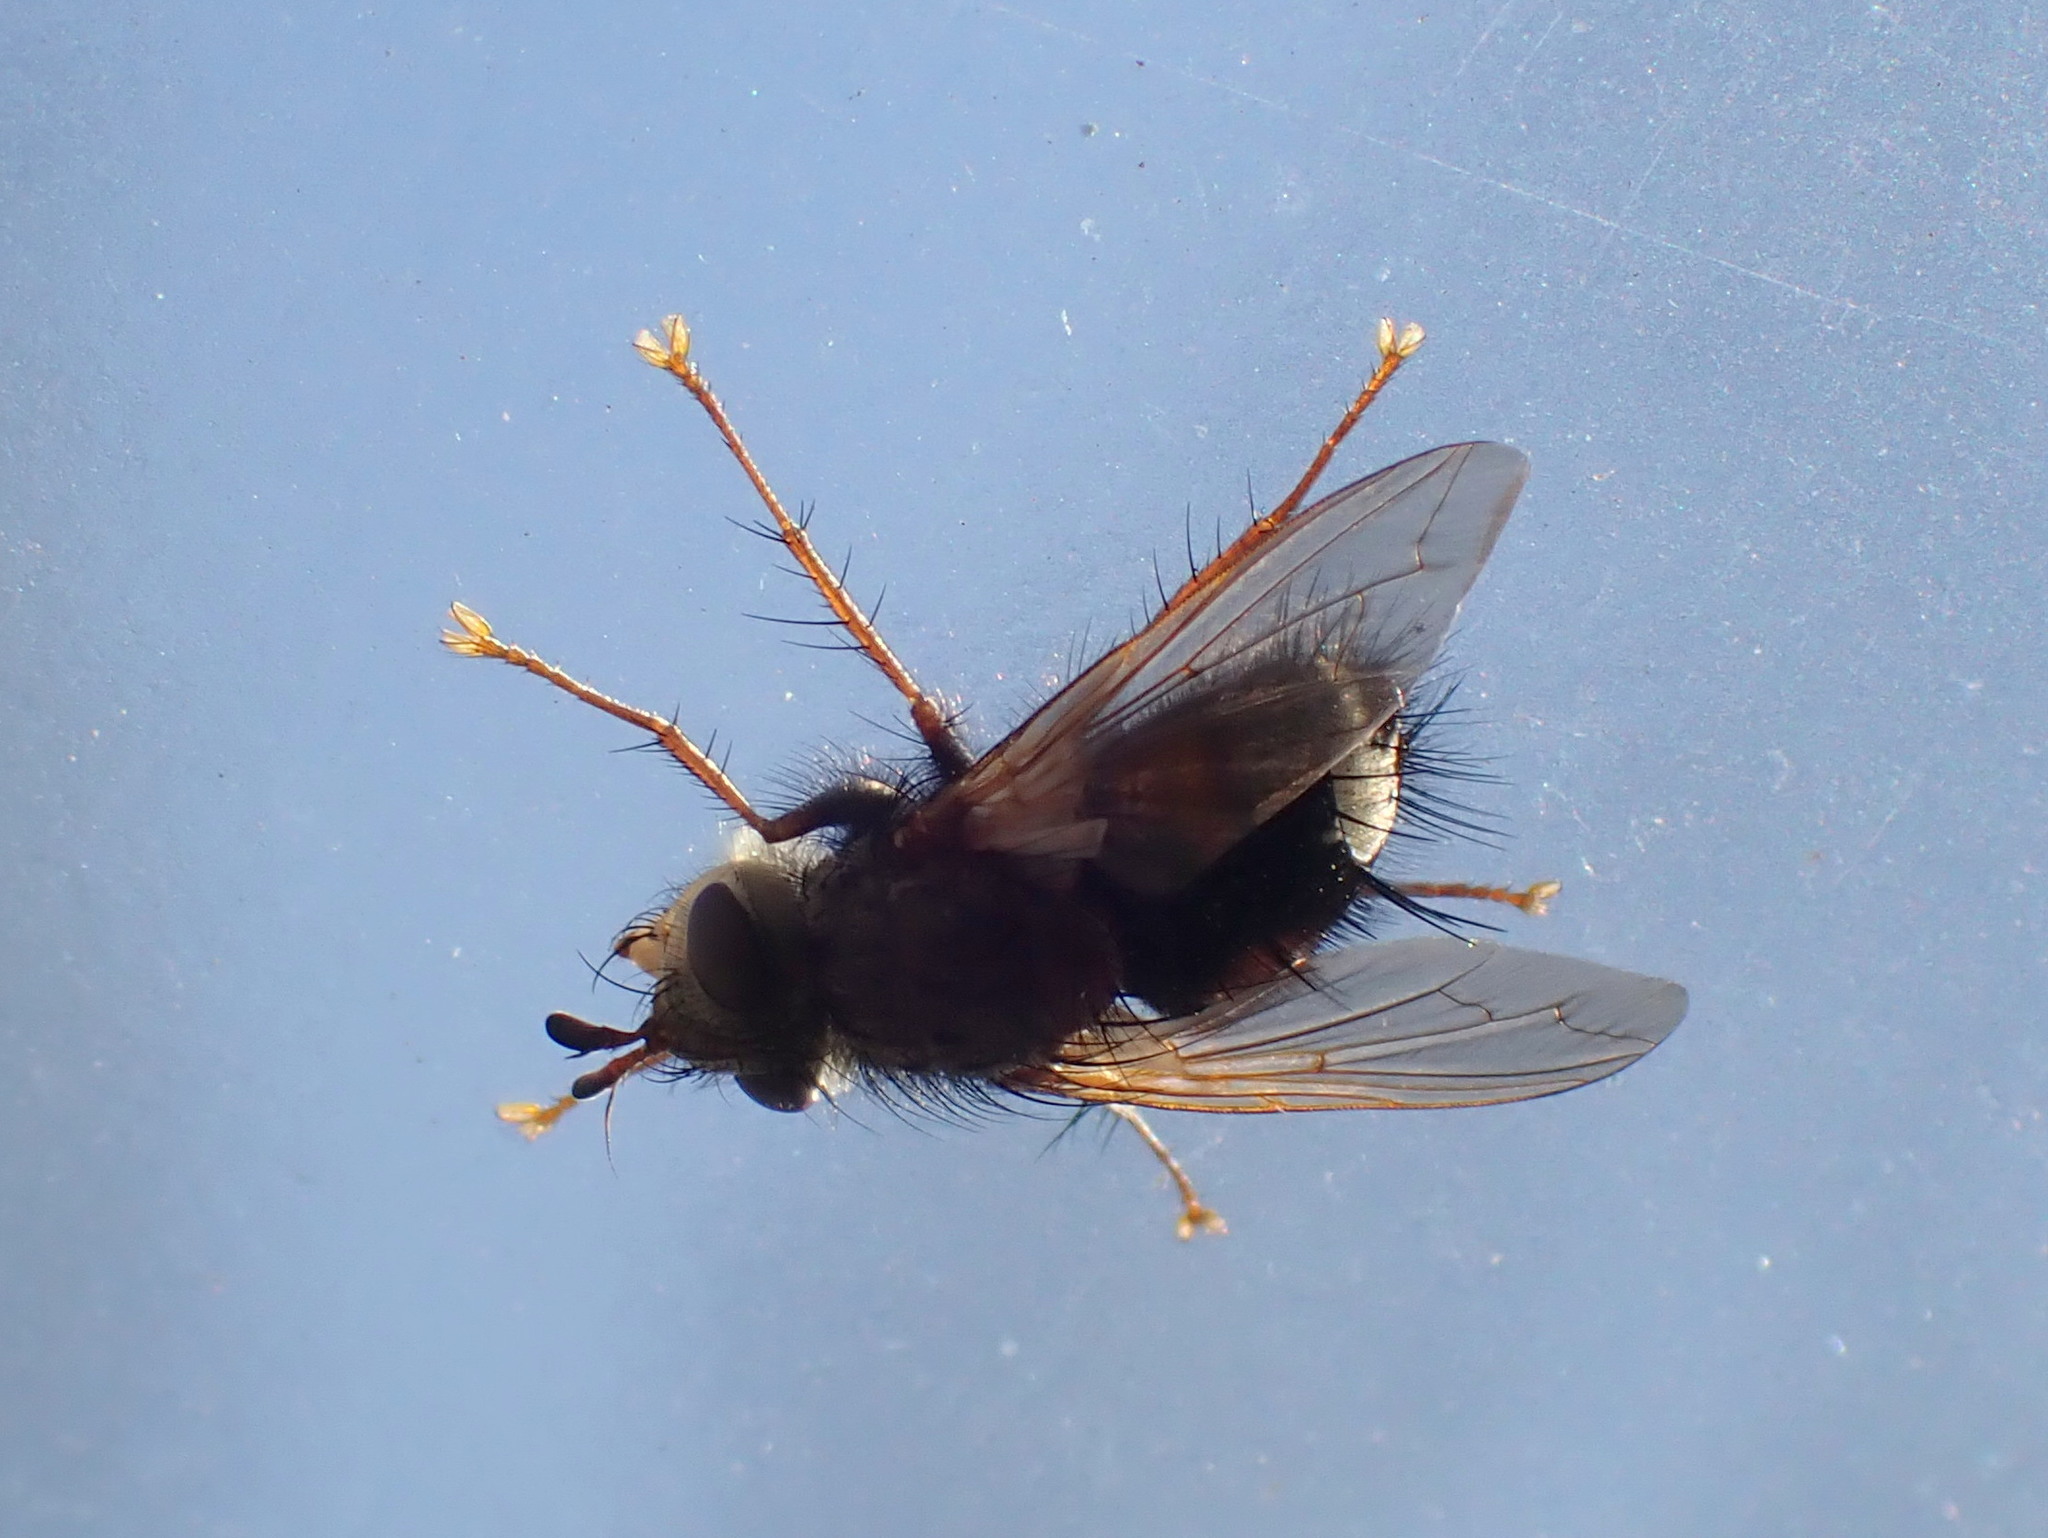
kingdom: Animalia
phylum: Arthropoda
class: Insecta
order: Diptera
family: Tachinidae
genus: Epalpus
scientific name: Epalpus signifer
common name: Early tachinid fly
